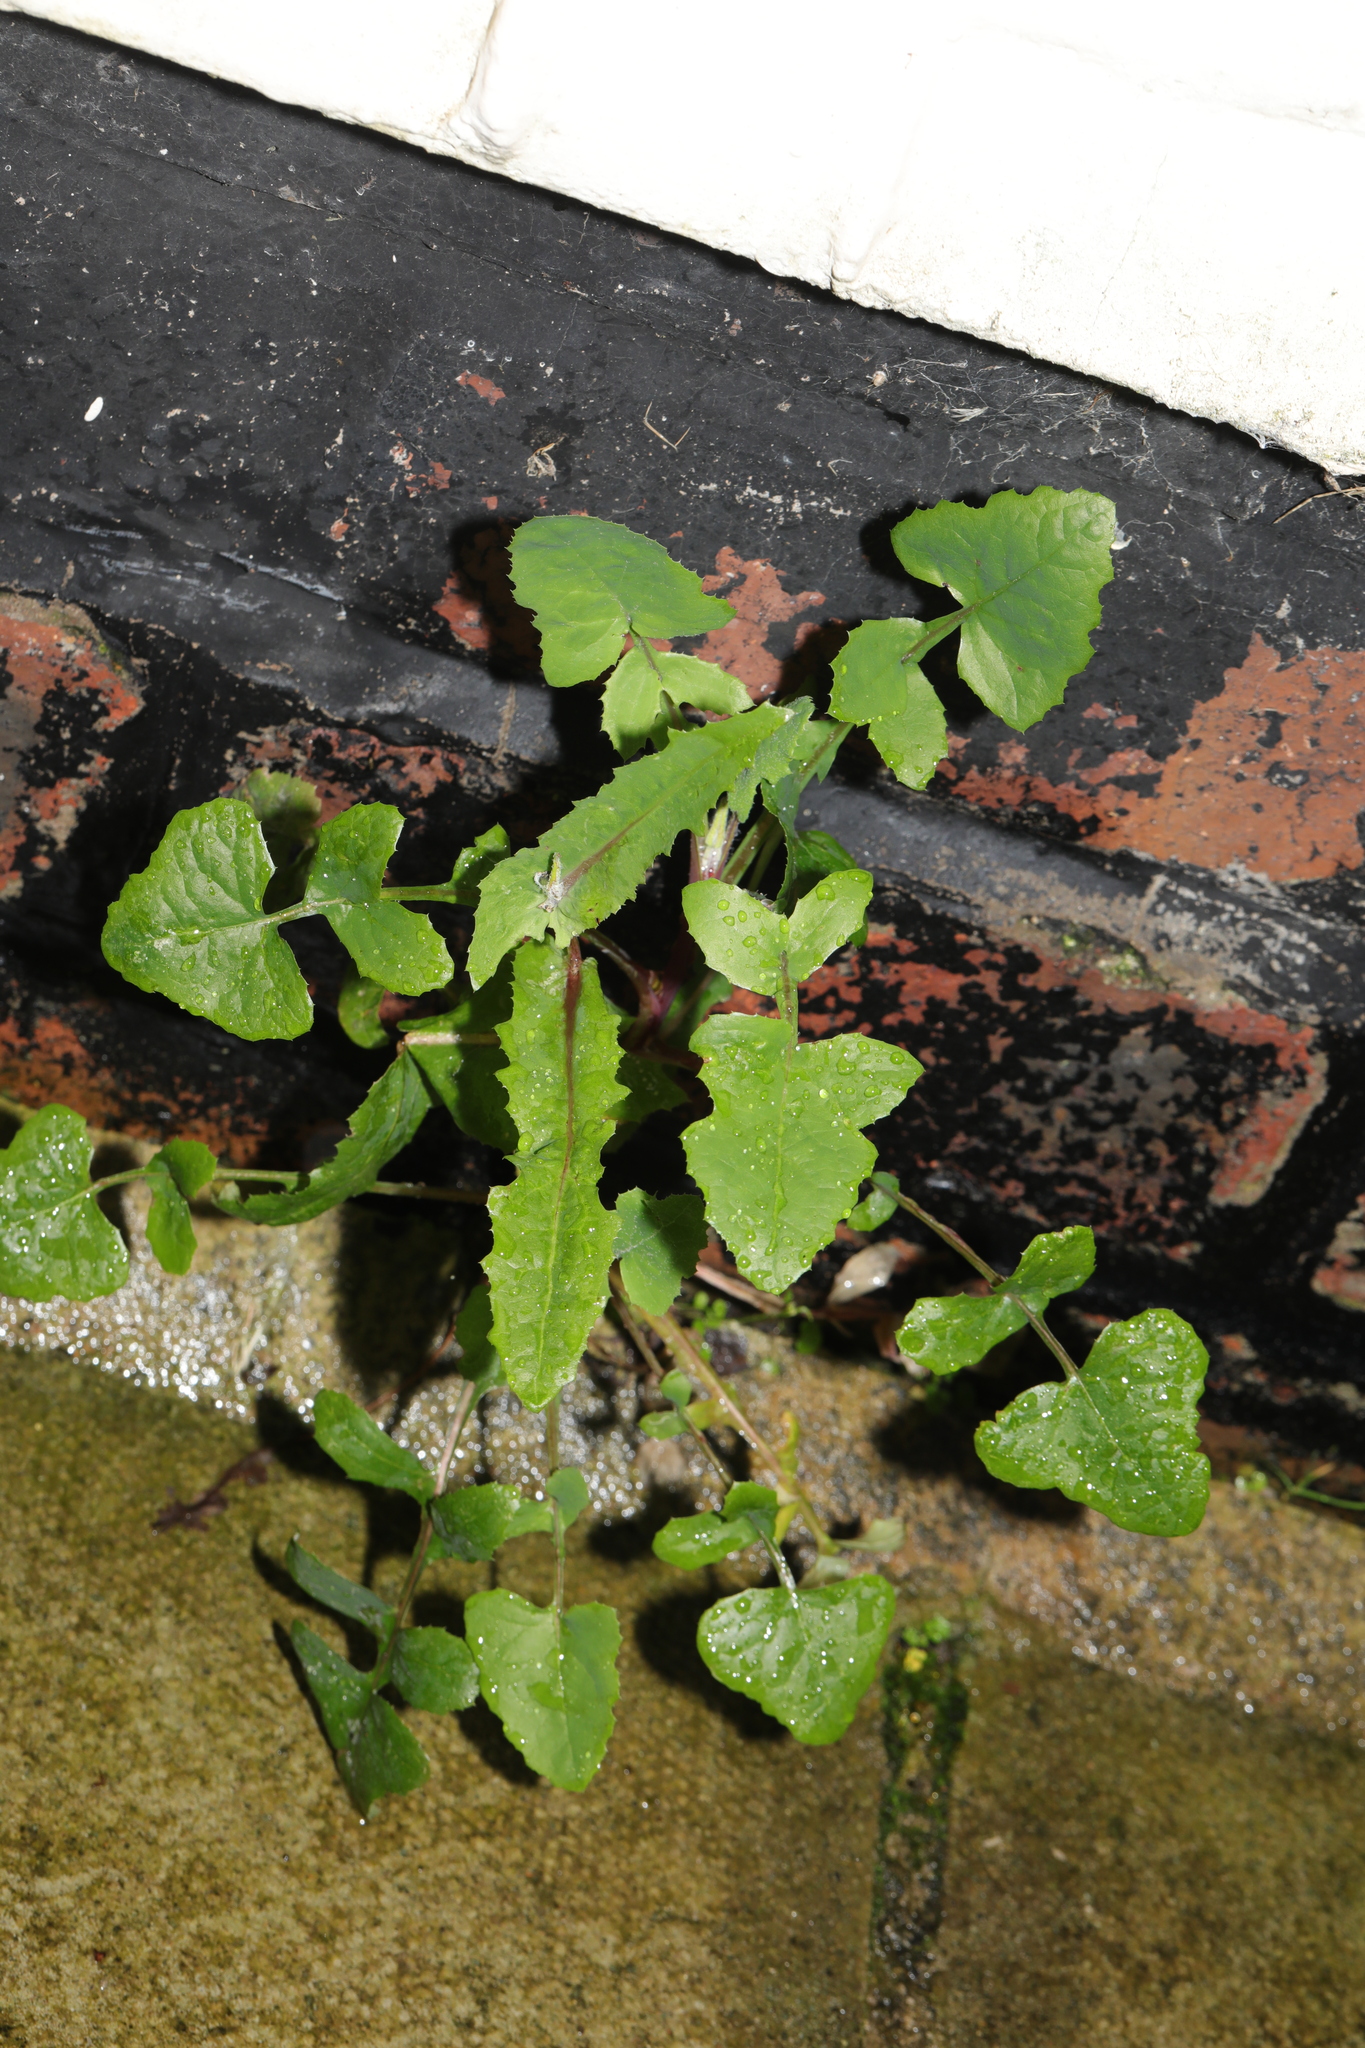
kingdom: Plantae
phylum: Tracheophyta
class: Magnoliopsida
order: Asterales
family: Asteraceae
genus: Sonchus
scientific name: Sonchus oleraceus
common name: Common sowthistle
